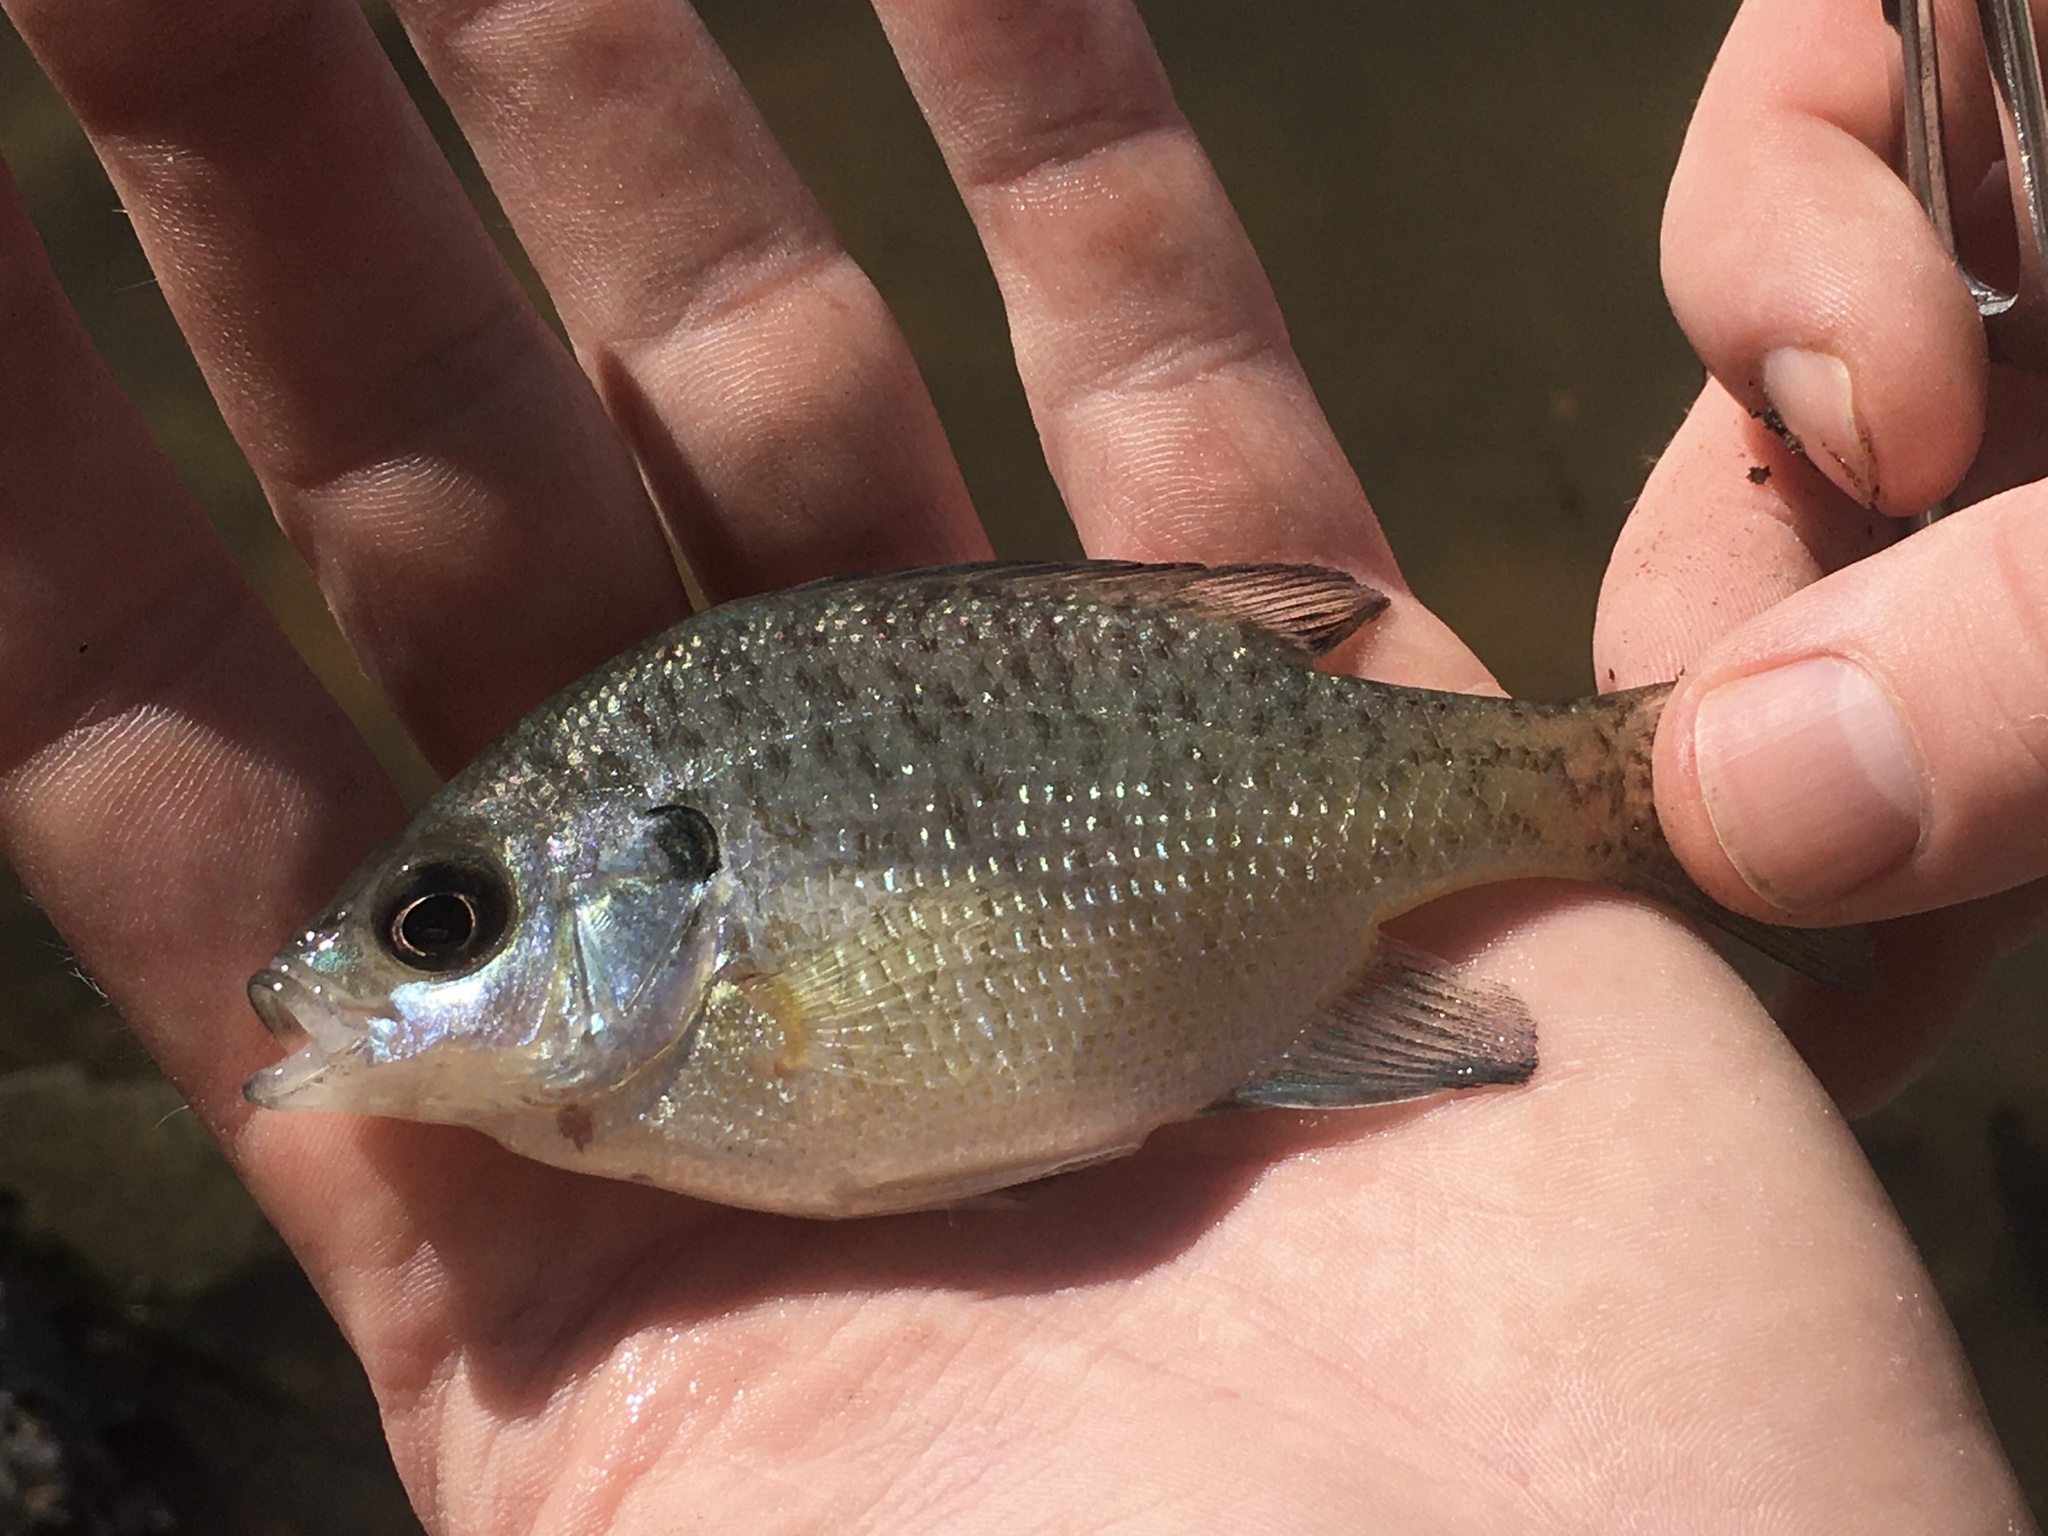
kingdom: Animalia
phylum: Chordata
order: Perciformes
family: Centrarchidae
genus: Lepomis
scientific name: Lepomis macrochirus
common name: Bluegill
